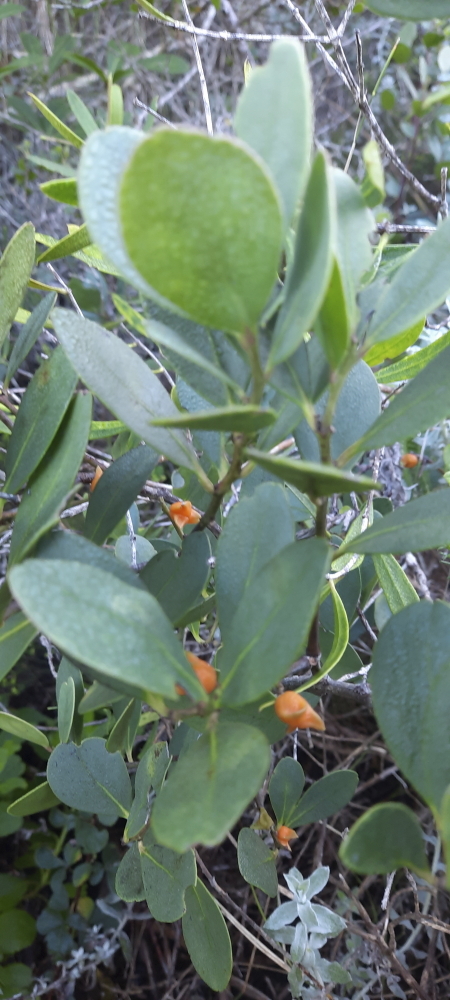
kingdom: Plantae
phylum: Tracheophyta
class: Magnoliopsida
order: Celastrales
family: Celastraceae
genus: Pterocelastrus
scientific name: Pterocelastrus tricuspidatus
